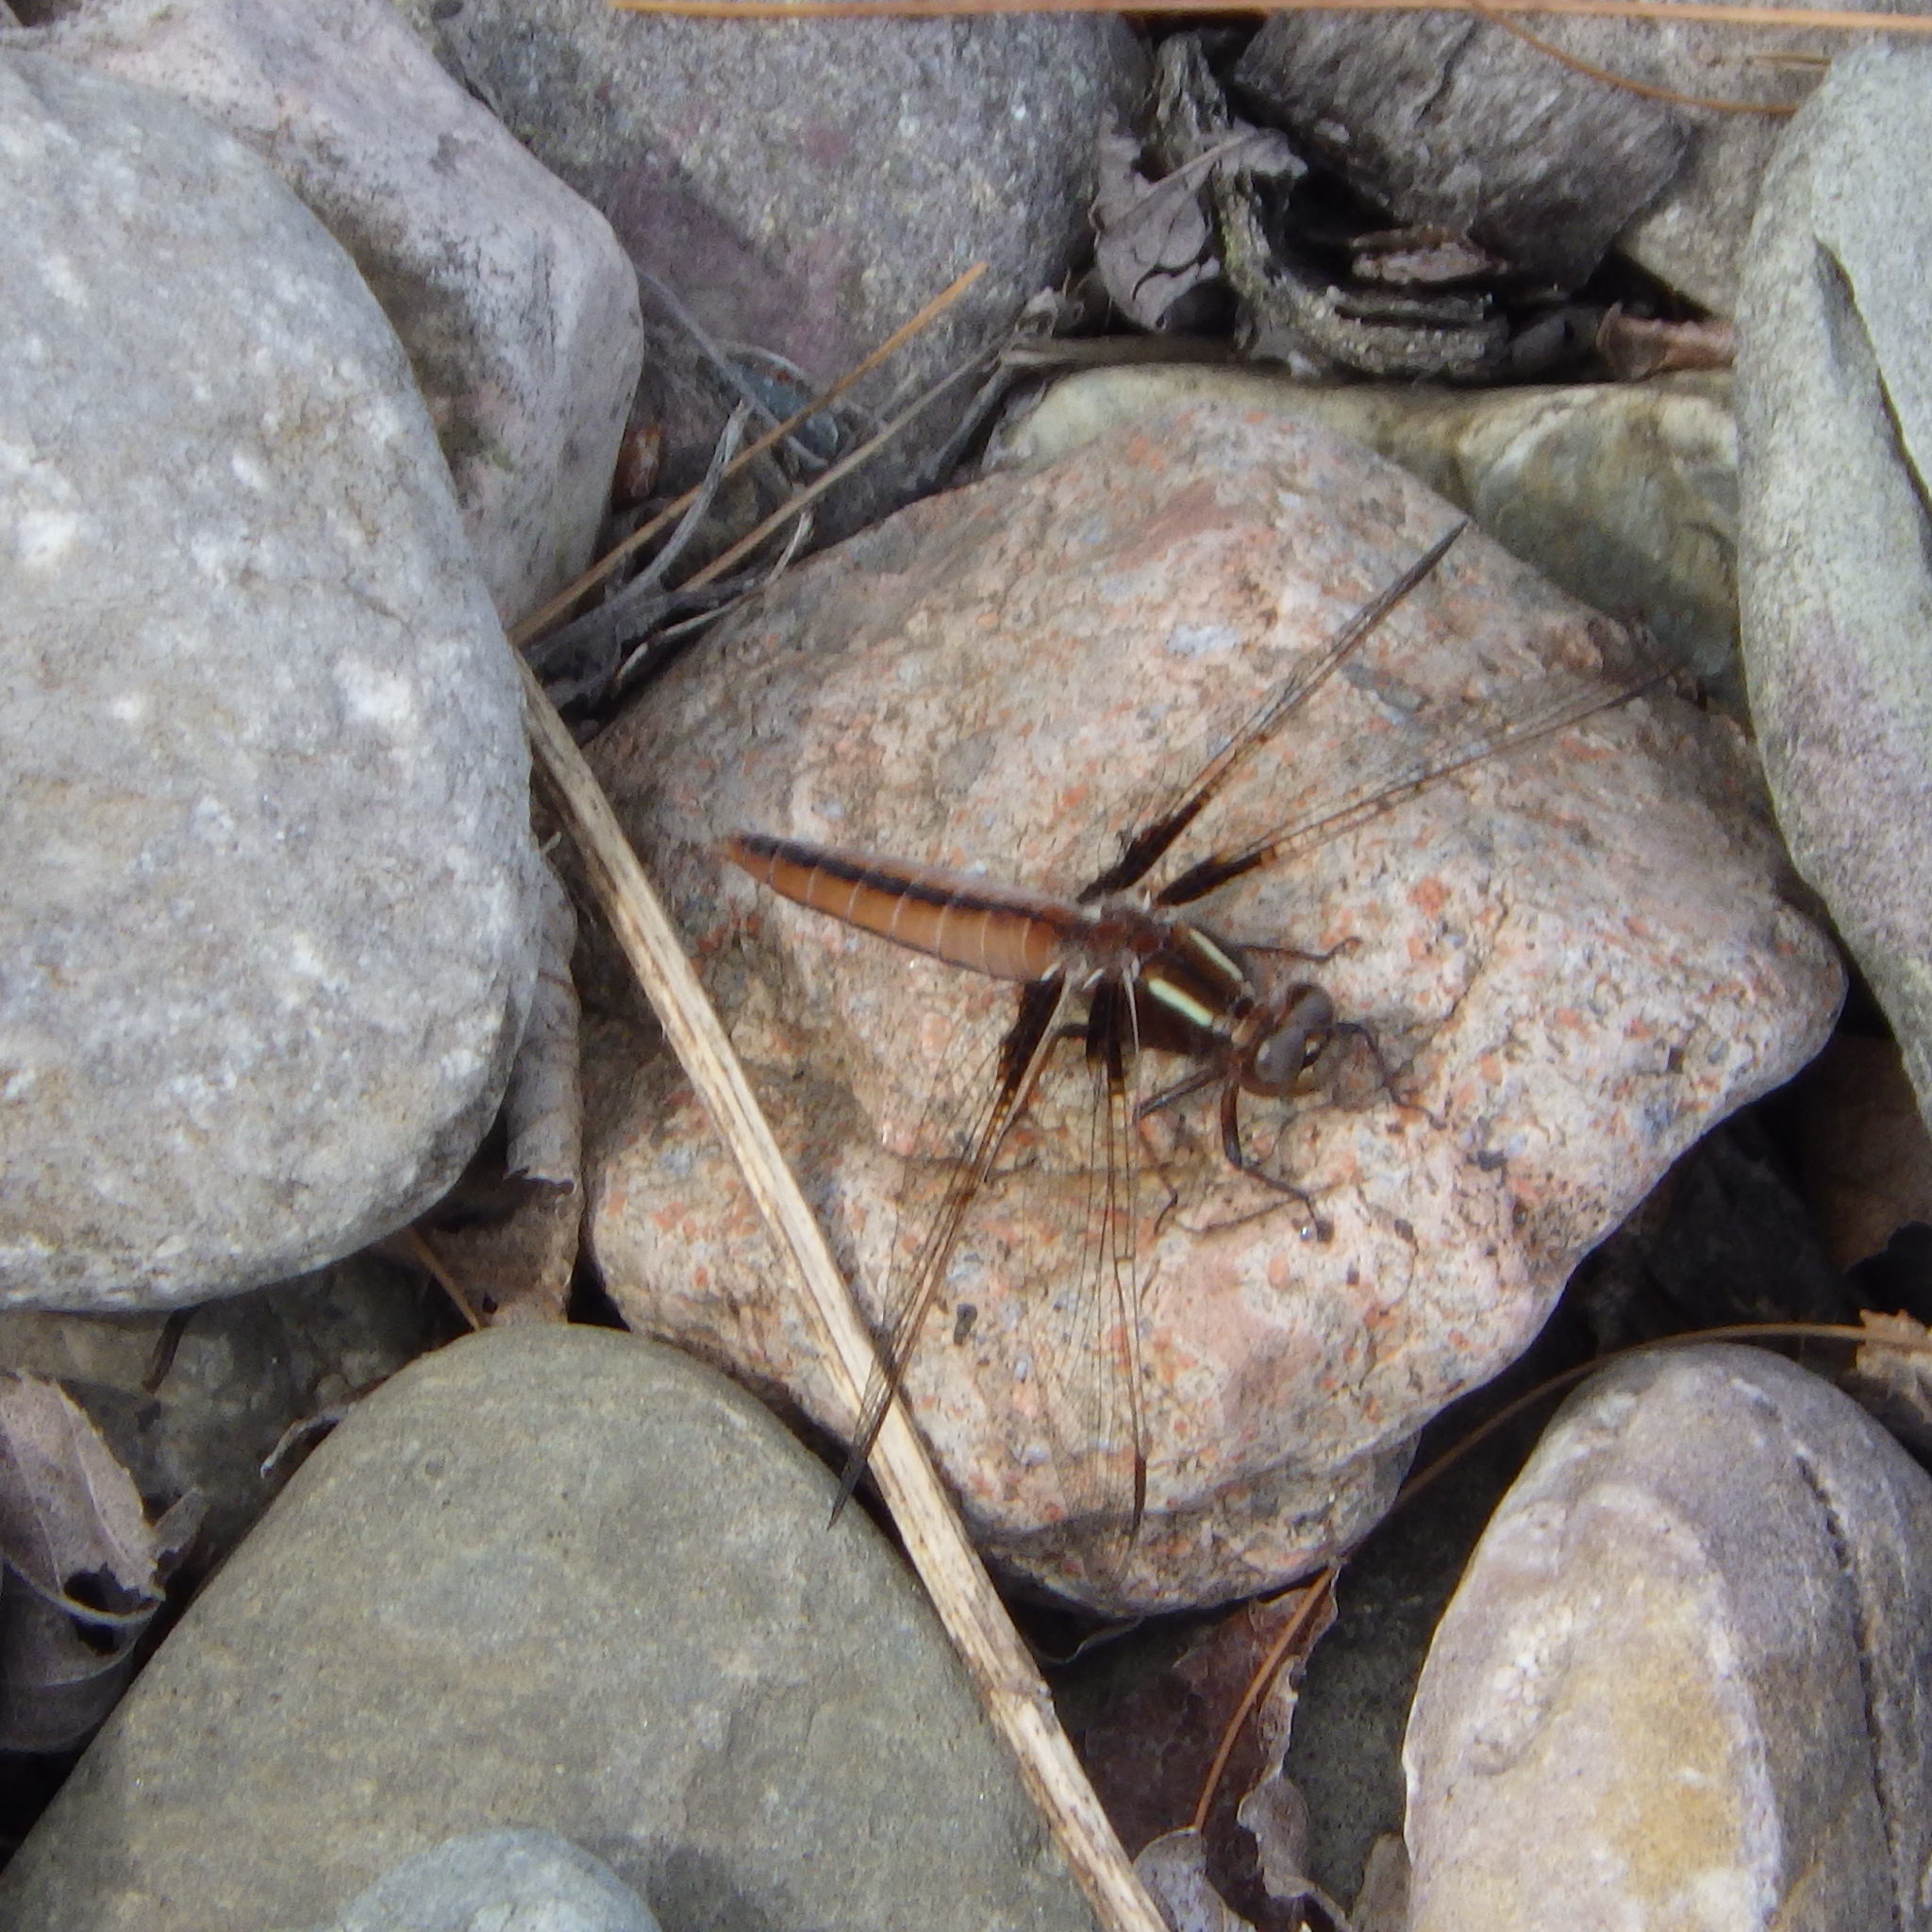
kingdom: Animalia
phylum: Arthropoda
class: Insecta
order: Odonata
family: Libellulidae
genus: Ladona
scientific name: Ladona exusta
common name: Libellule embrasée
